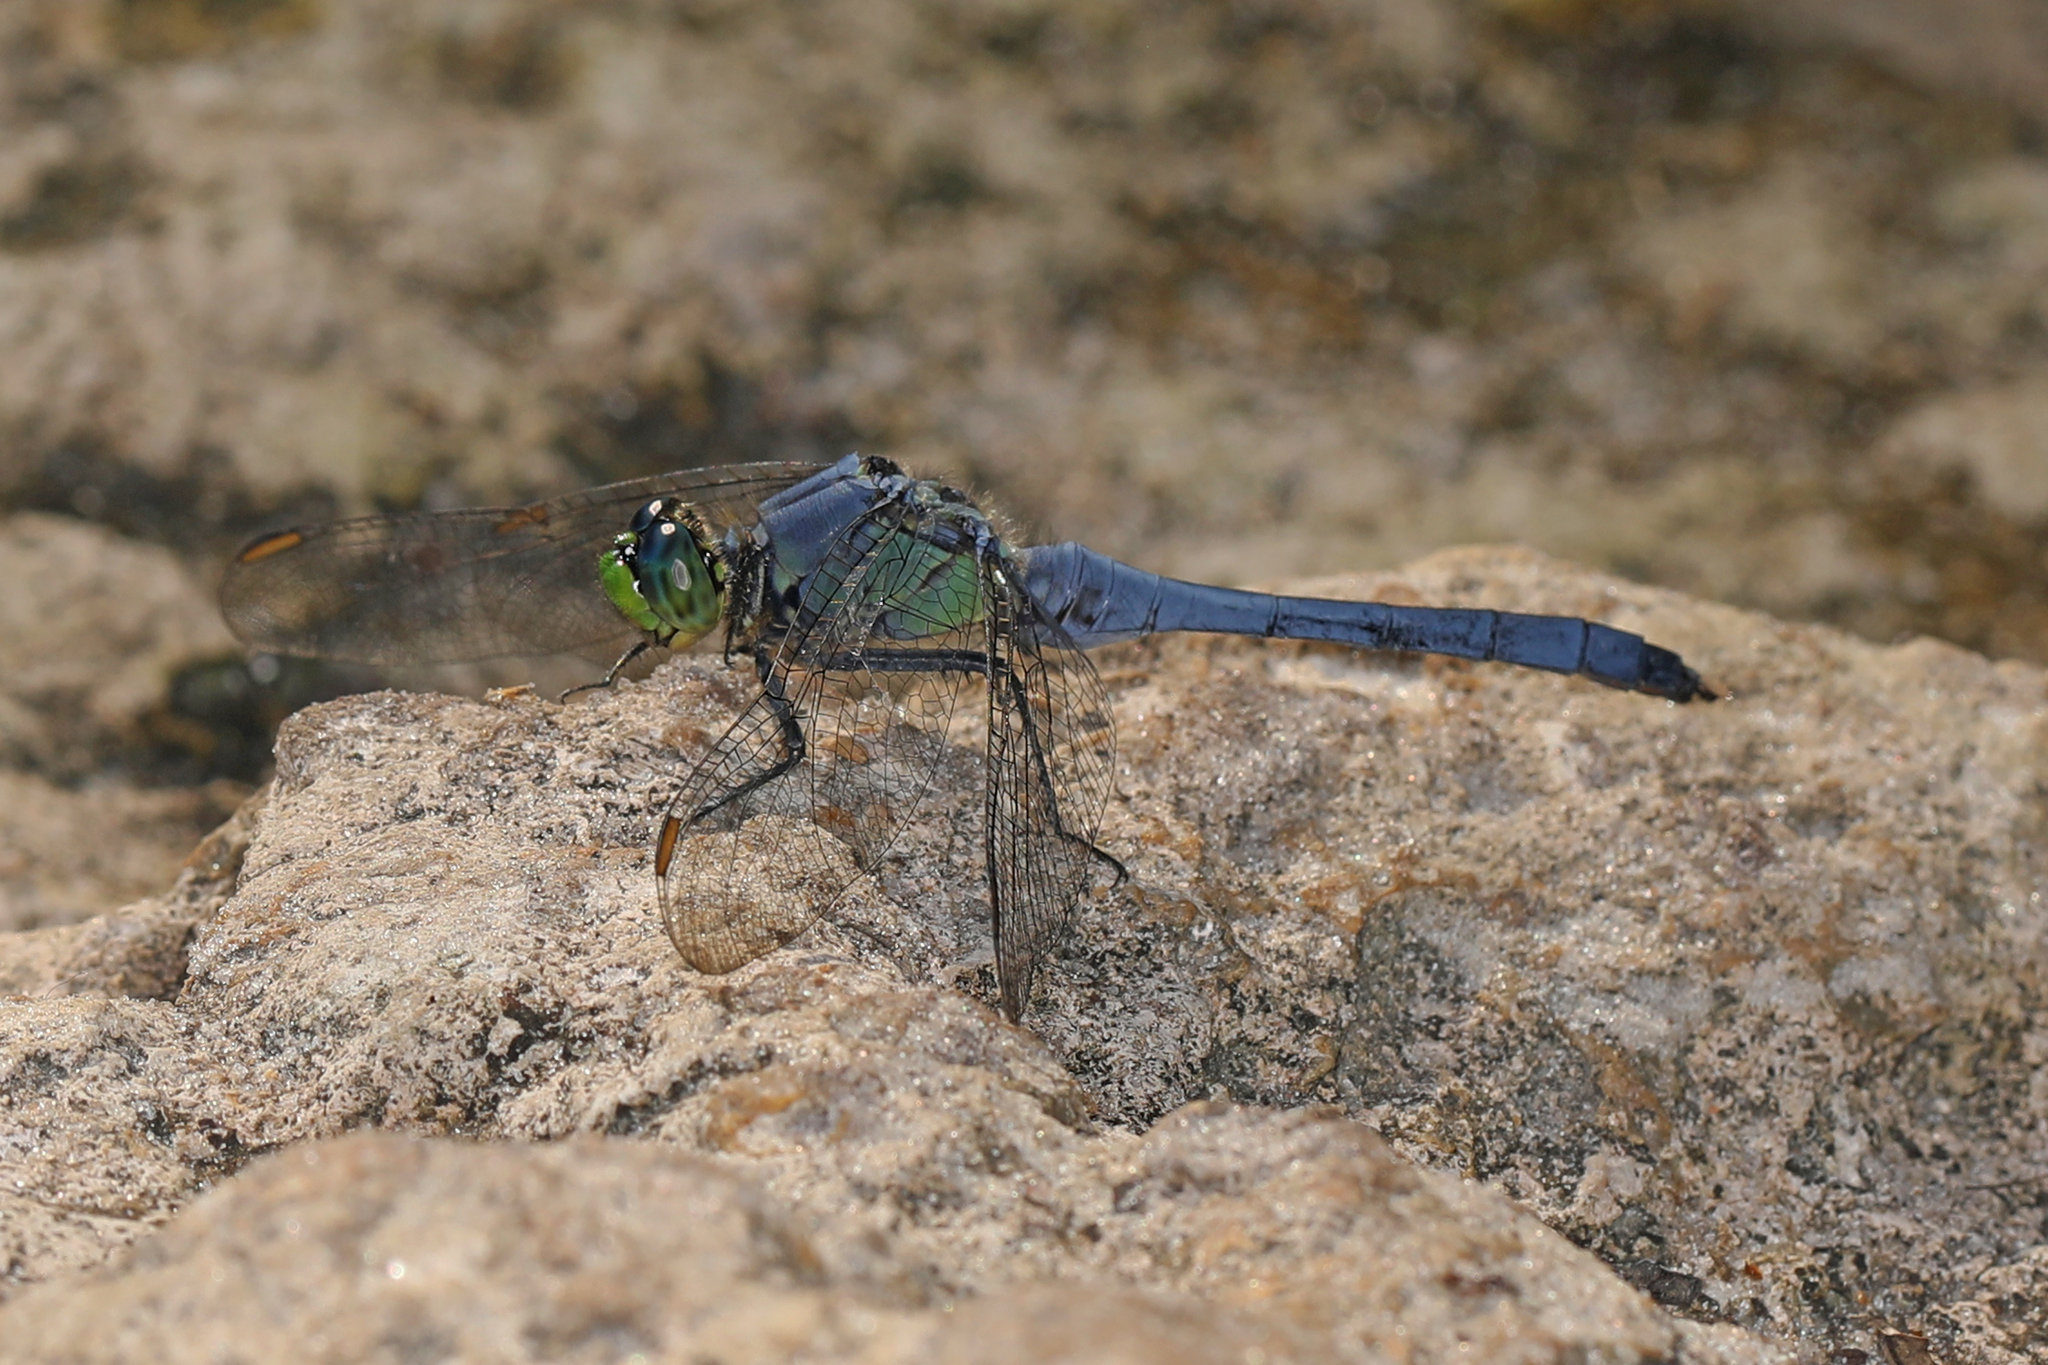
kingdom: Animalia
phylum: Arthropoda
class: Insecta
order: Odonata
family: Libellulidae
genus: Erythemis
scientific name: Erythemis simplicicollis
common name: Eastern pondhawk
